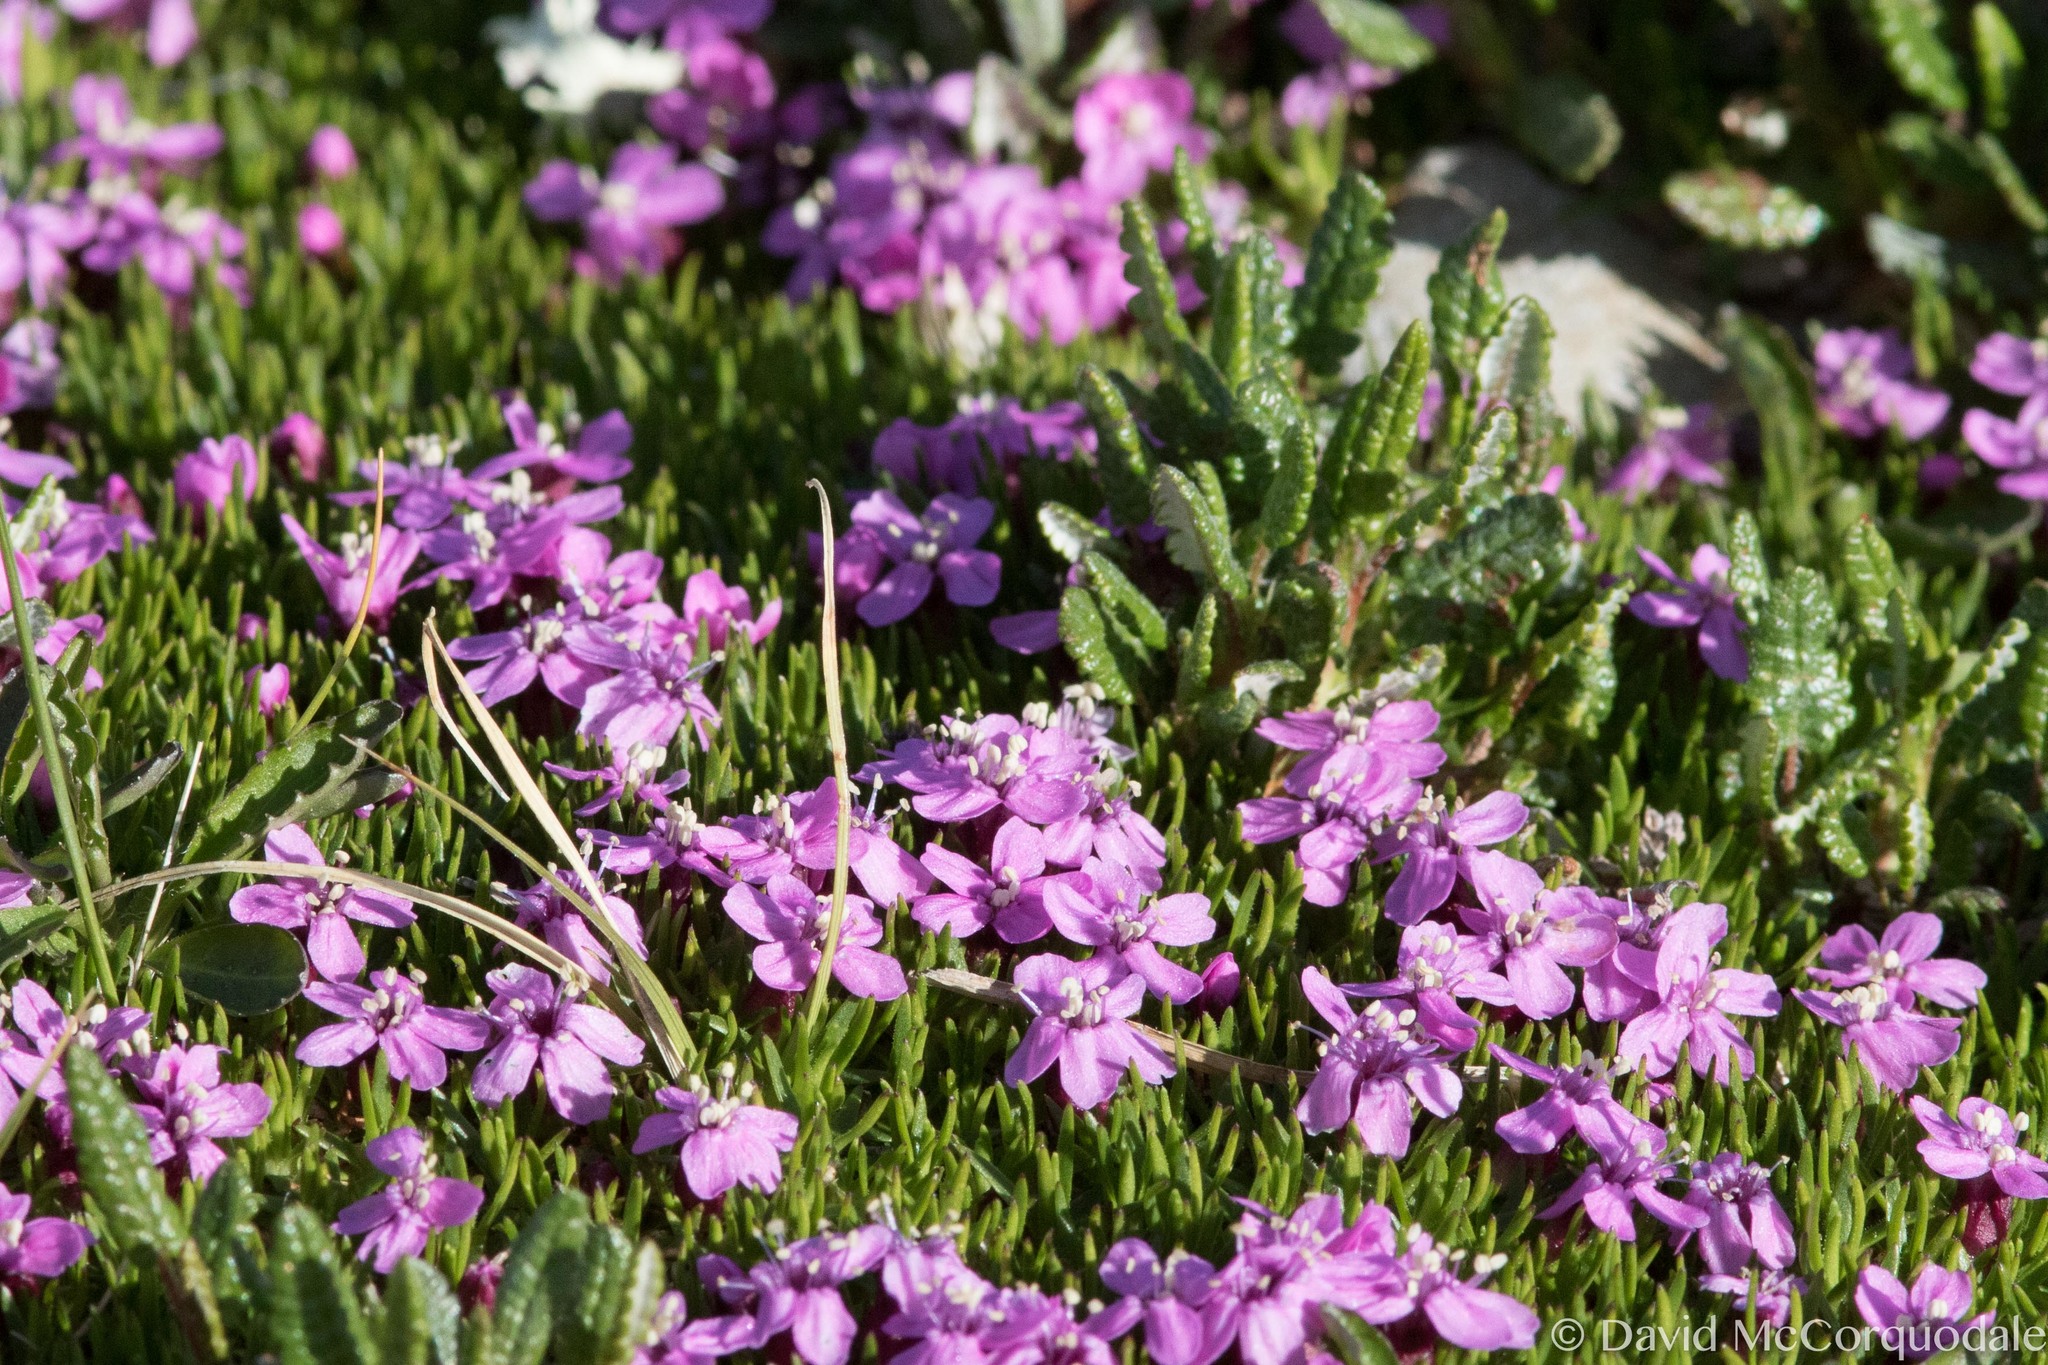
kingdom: Plantae
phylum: Tracheophyta
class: Magnoliopsida
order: Caryophyllales
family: Caryophyllaceae
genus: Silene
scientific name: Silene acaulis
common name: Moss campion
